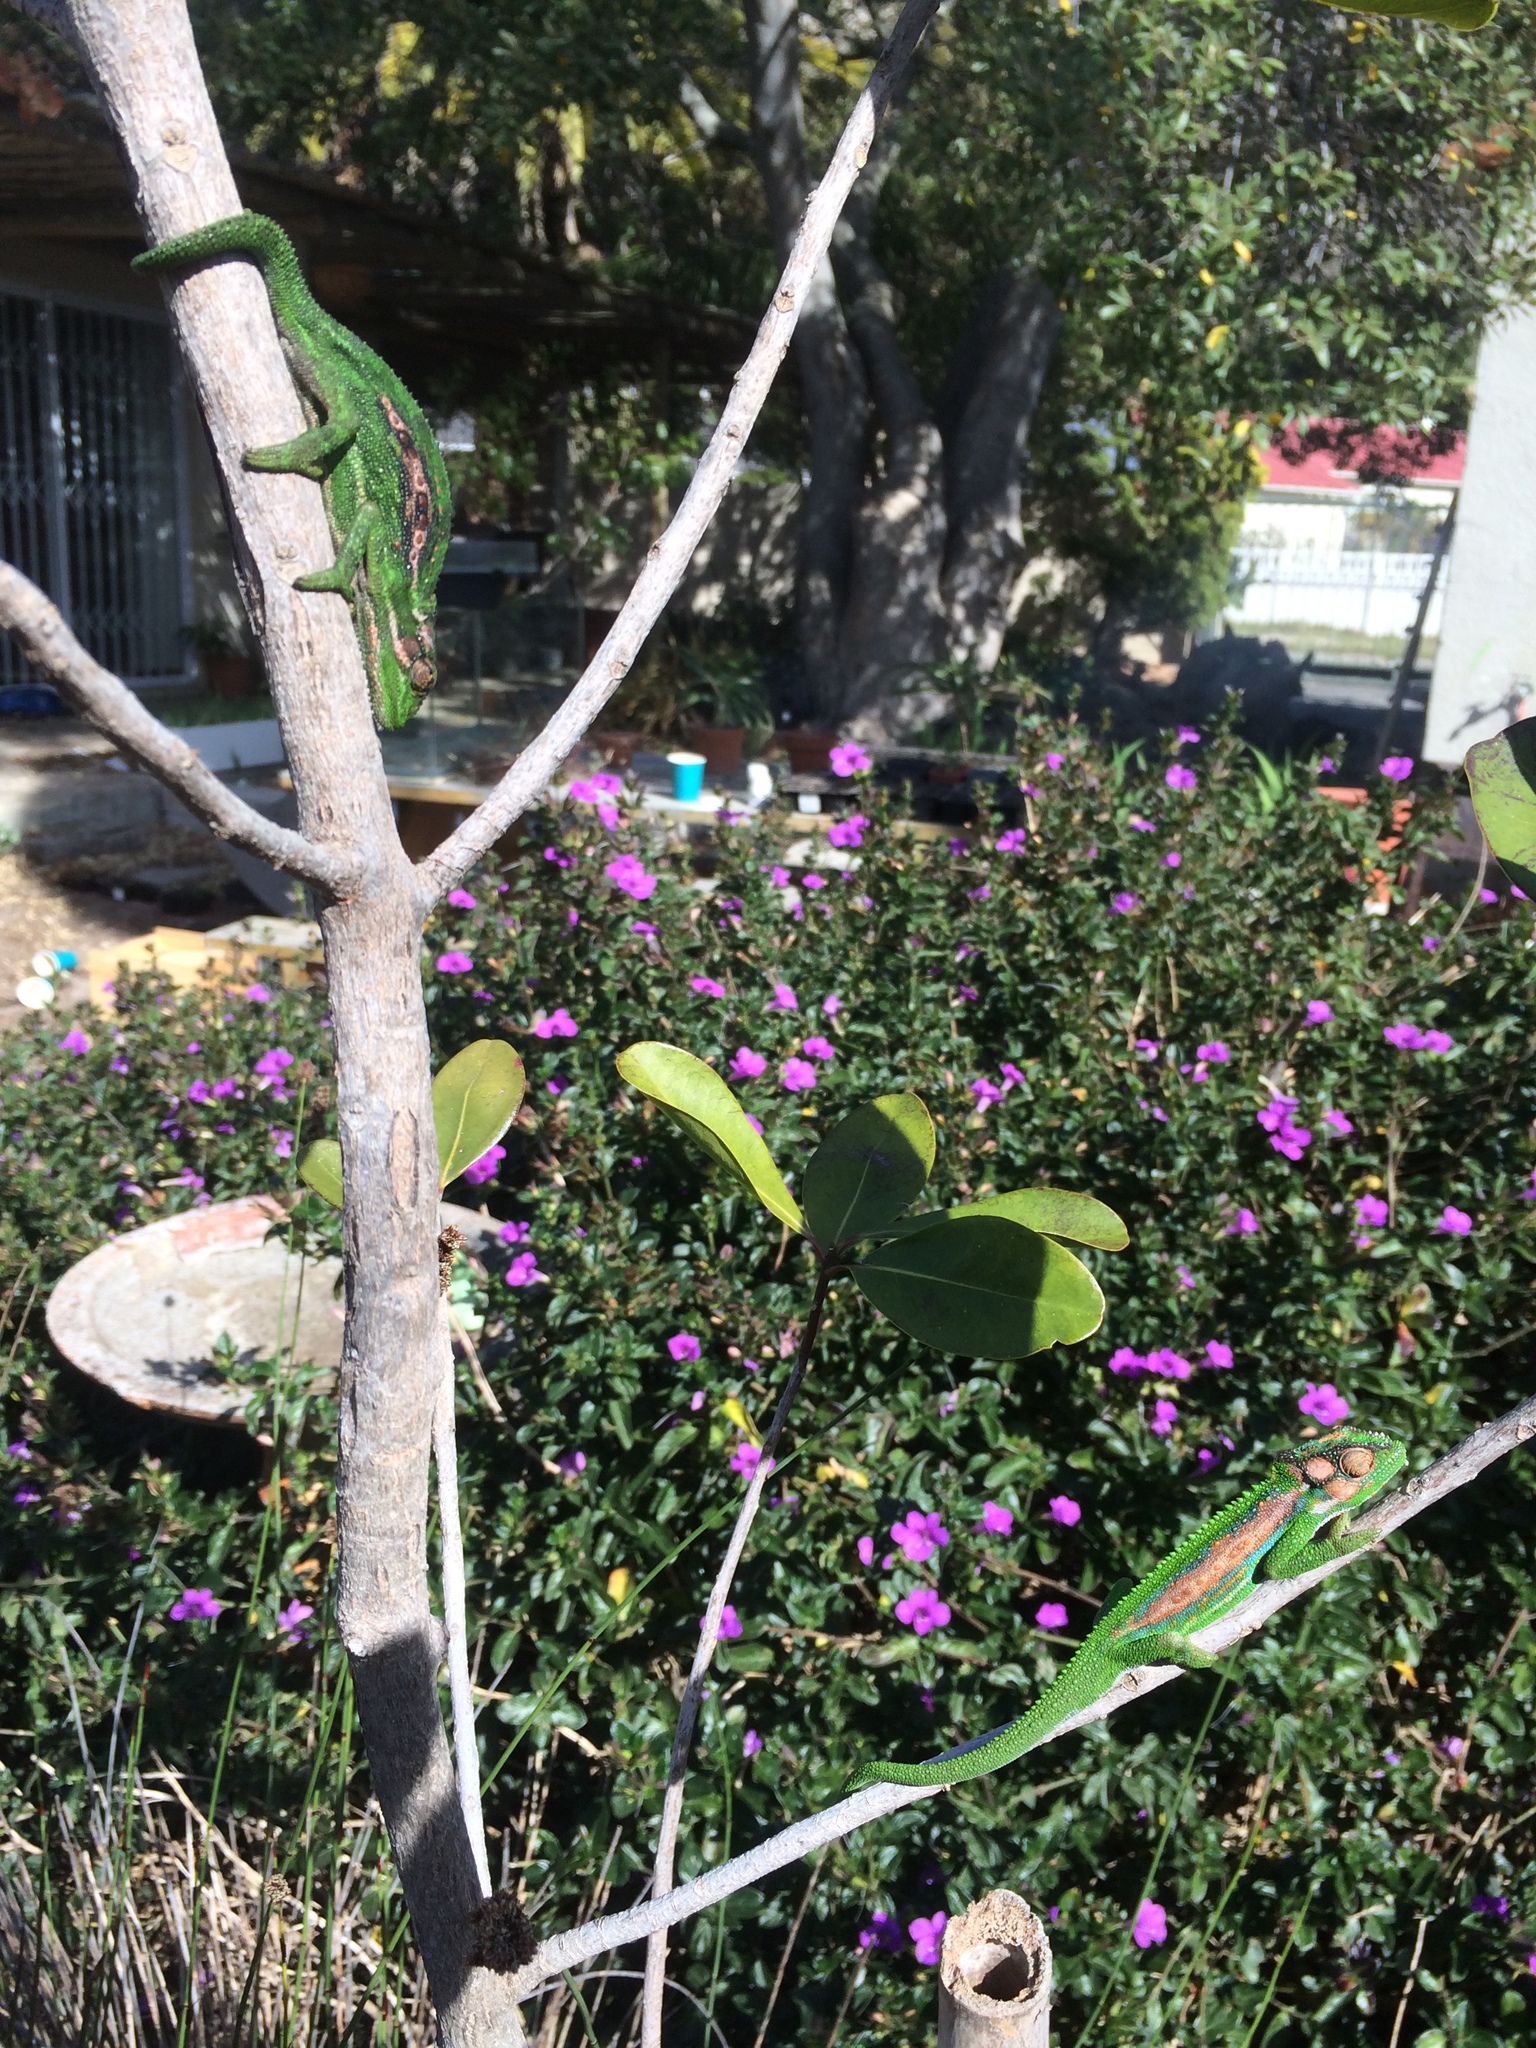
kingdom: Animalia
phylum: Chordata
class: Squamata
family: Chamaeleonidae
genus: Bradypodion
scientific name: Bradypodion pumilum
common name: Cape dwarf chameleon
